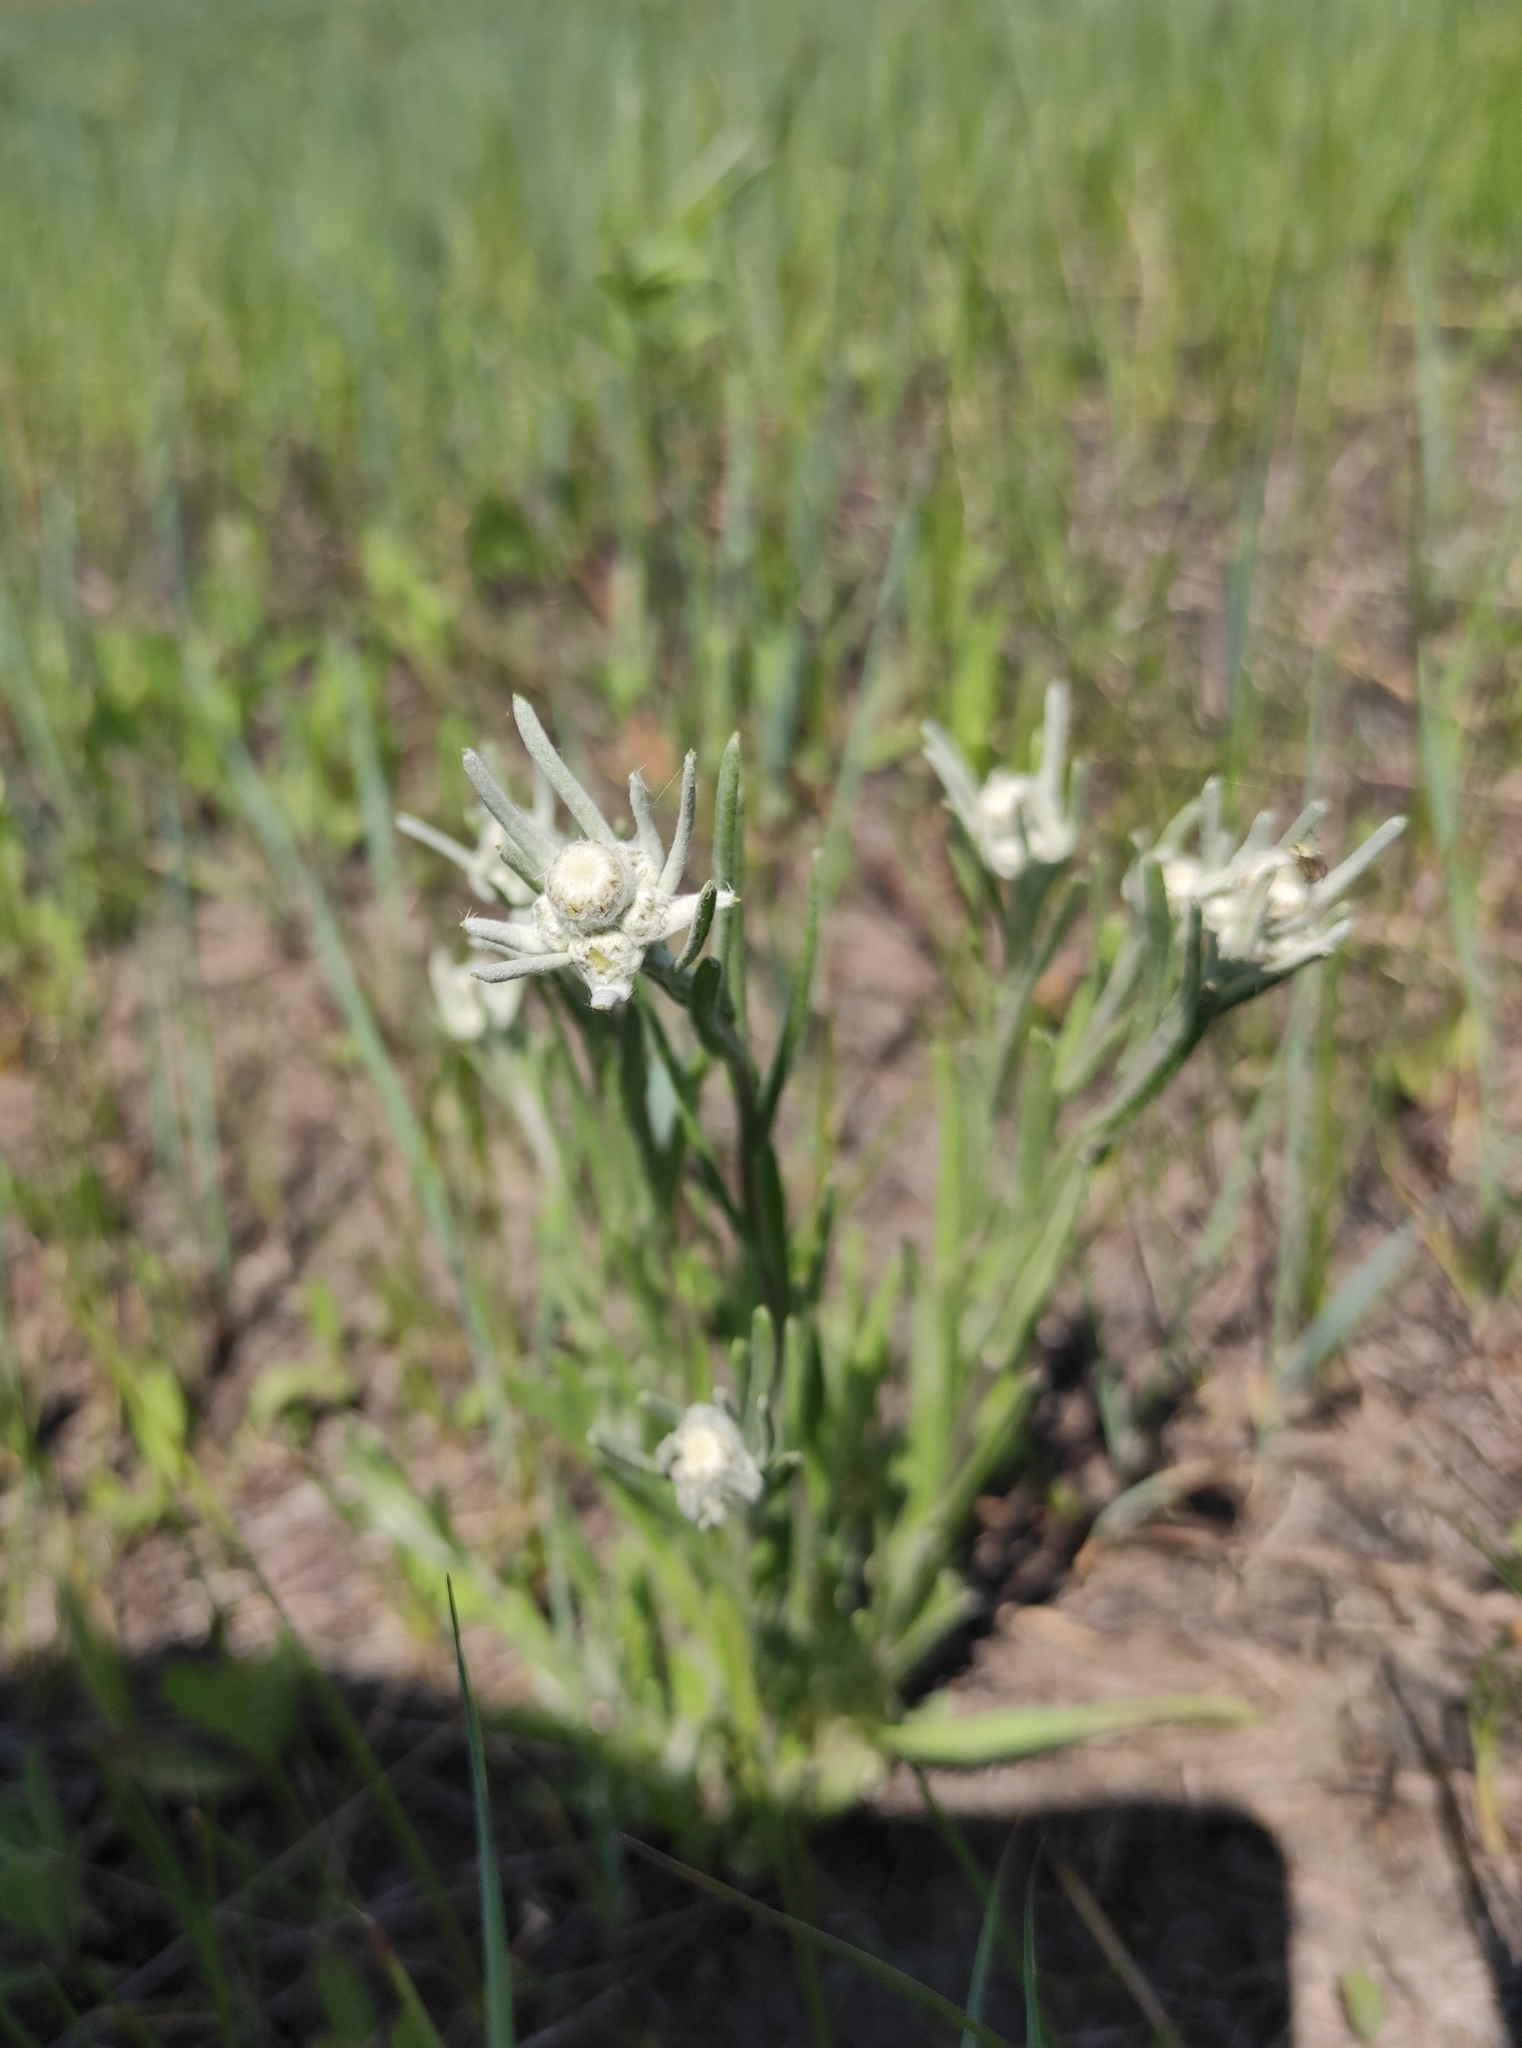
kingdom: Plantae
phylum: Tracheophyta
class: Magnoliopsida
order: Asterales
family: Asteraceae
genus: Leontopodium
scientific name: Leontopodium leontopodioides
